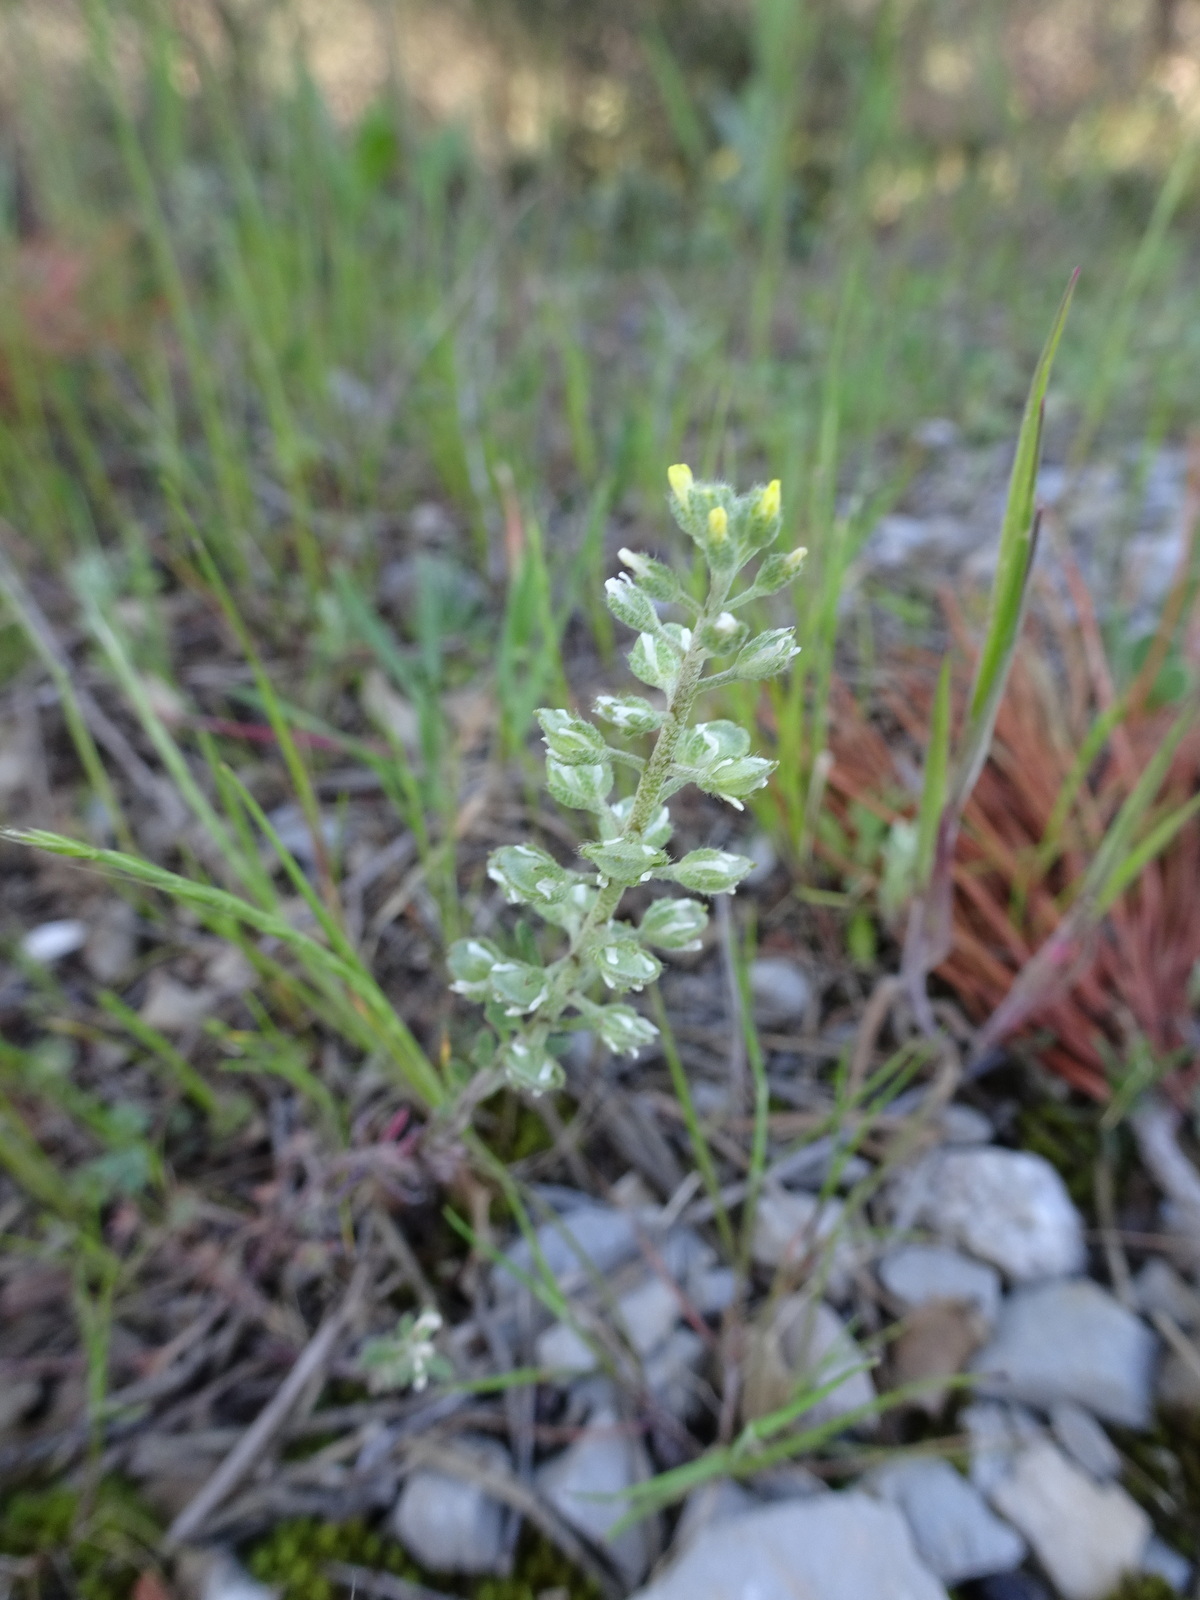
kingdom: Plantae
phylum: Tracheophyta
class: Magnoliopsida
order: Brassicales
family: Brassicaceae
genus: Alyssum
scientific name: Alyssum alyssoides
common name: Small alison
